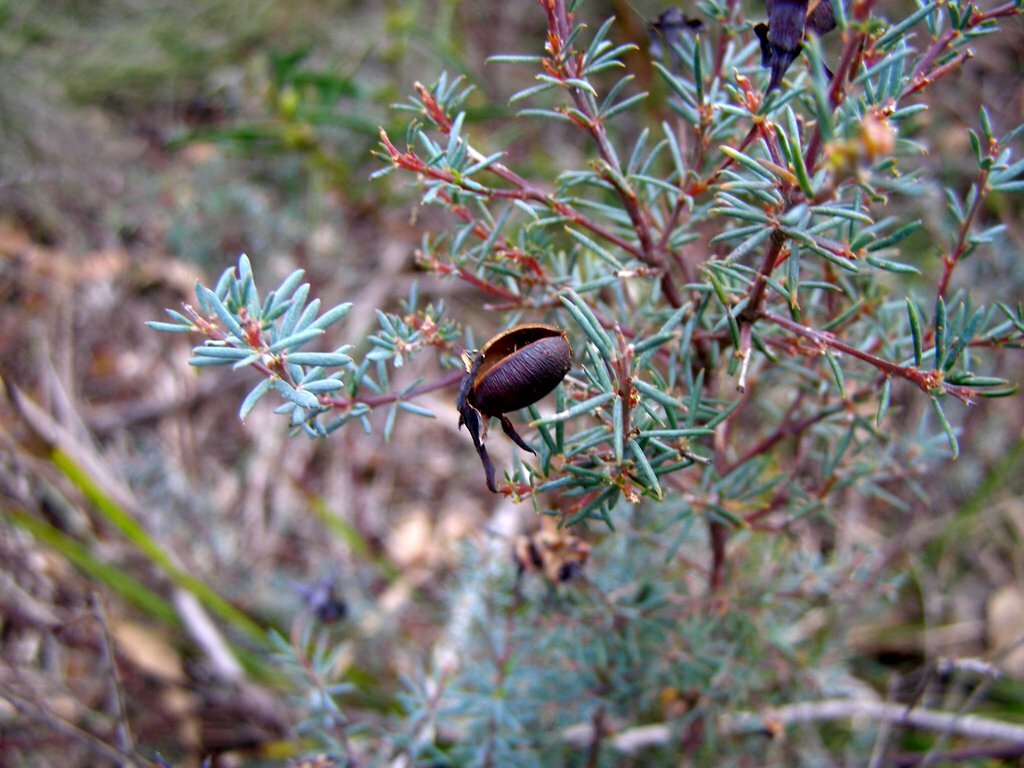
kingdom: Plantae
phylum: Tracheophyta
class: Magnoliopsida
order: Fabales
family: Fabaceae
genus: Gompholobium
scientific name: Gompholobium huegelii
